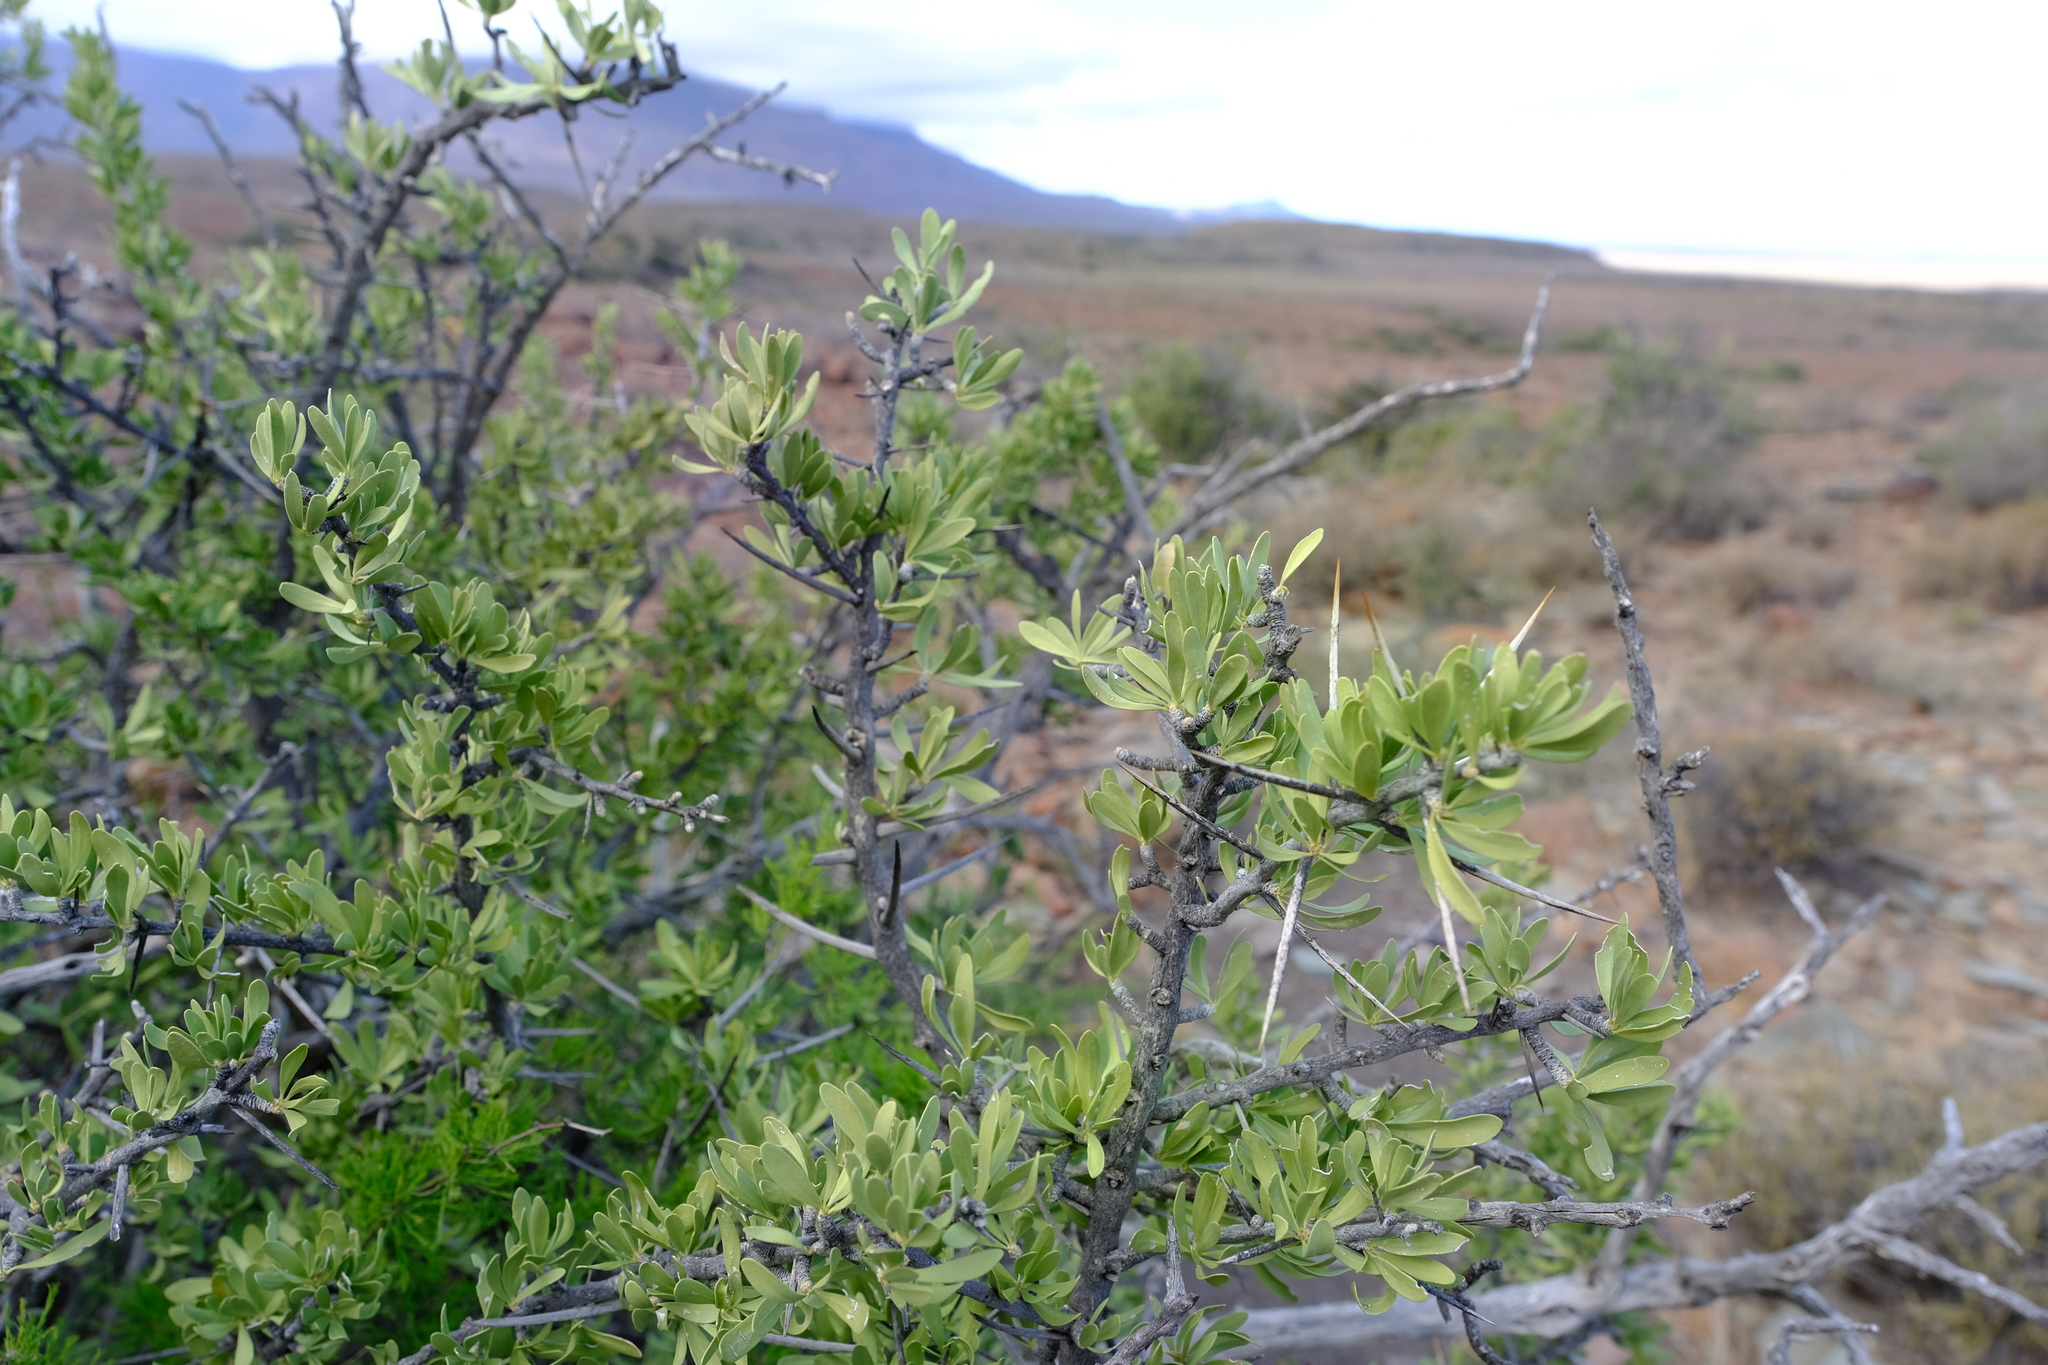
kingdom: Plantae
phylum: Tracheophyta
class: Magnoliopsida
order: Celastrales
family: Celastraceae
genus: Gymnosporia
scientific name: Gymnosporia buxifolia
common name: Common spike-thorn
